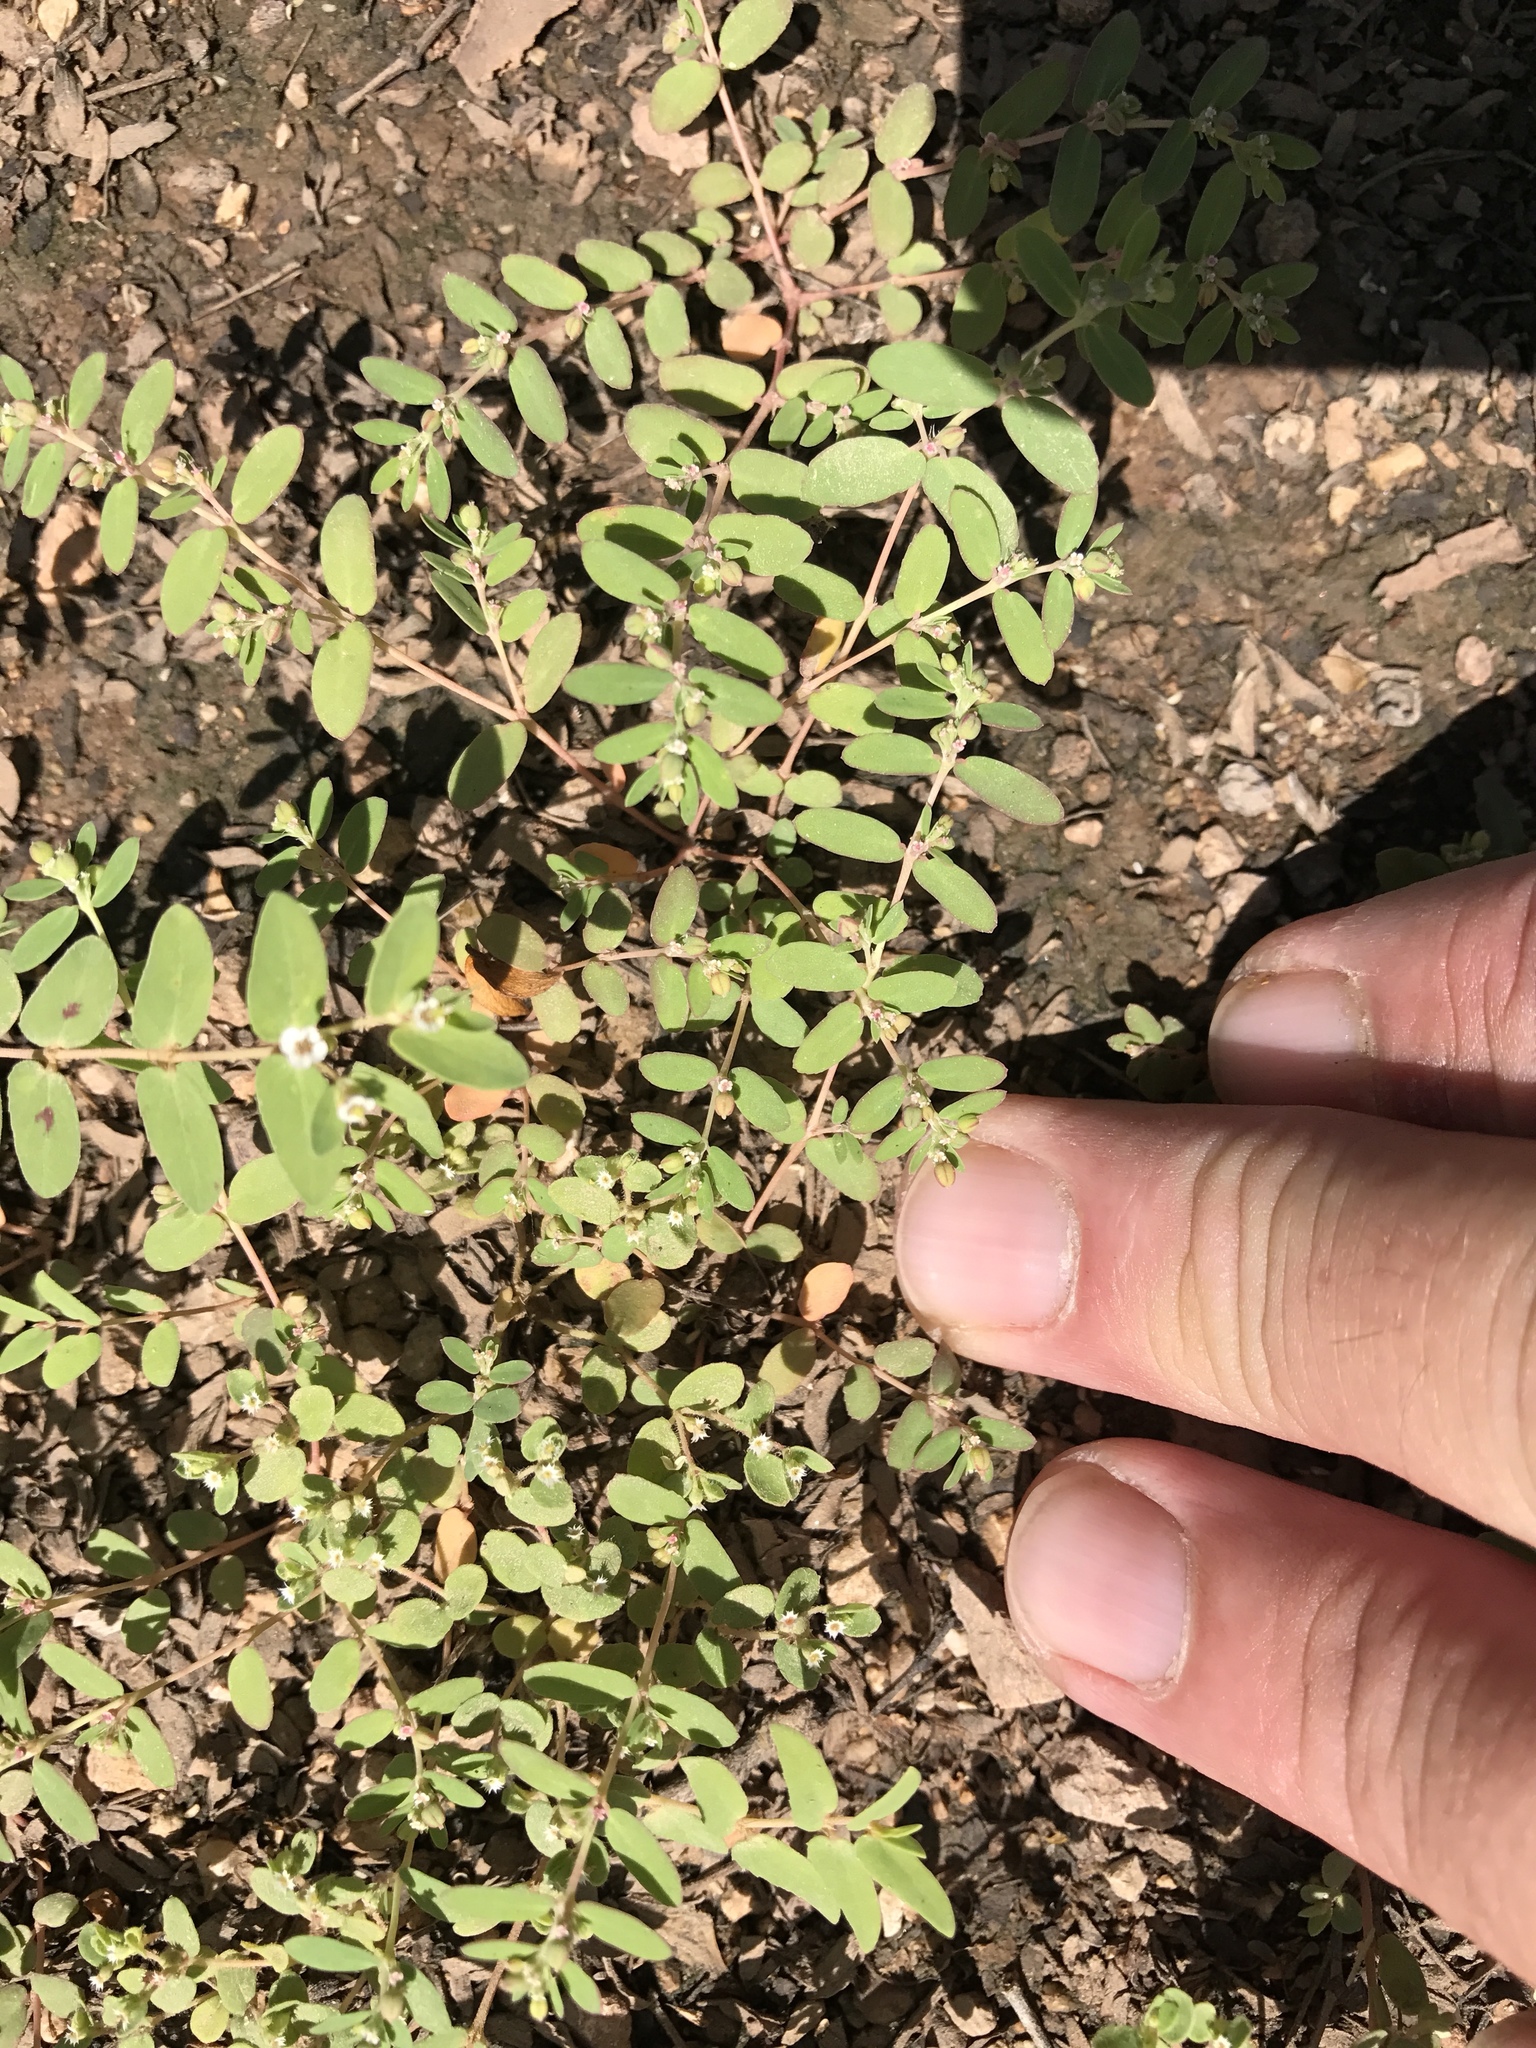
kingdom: Plantae
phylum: Tracheophyta
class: Magnoliopsida
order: Malpighiales
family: Euphorbiaceae
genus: Euphorbia
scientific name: Euphorbia setiloba
